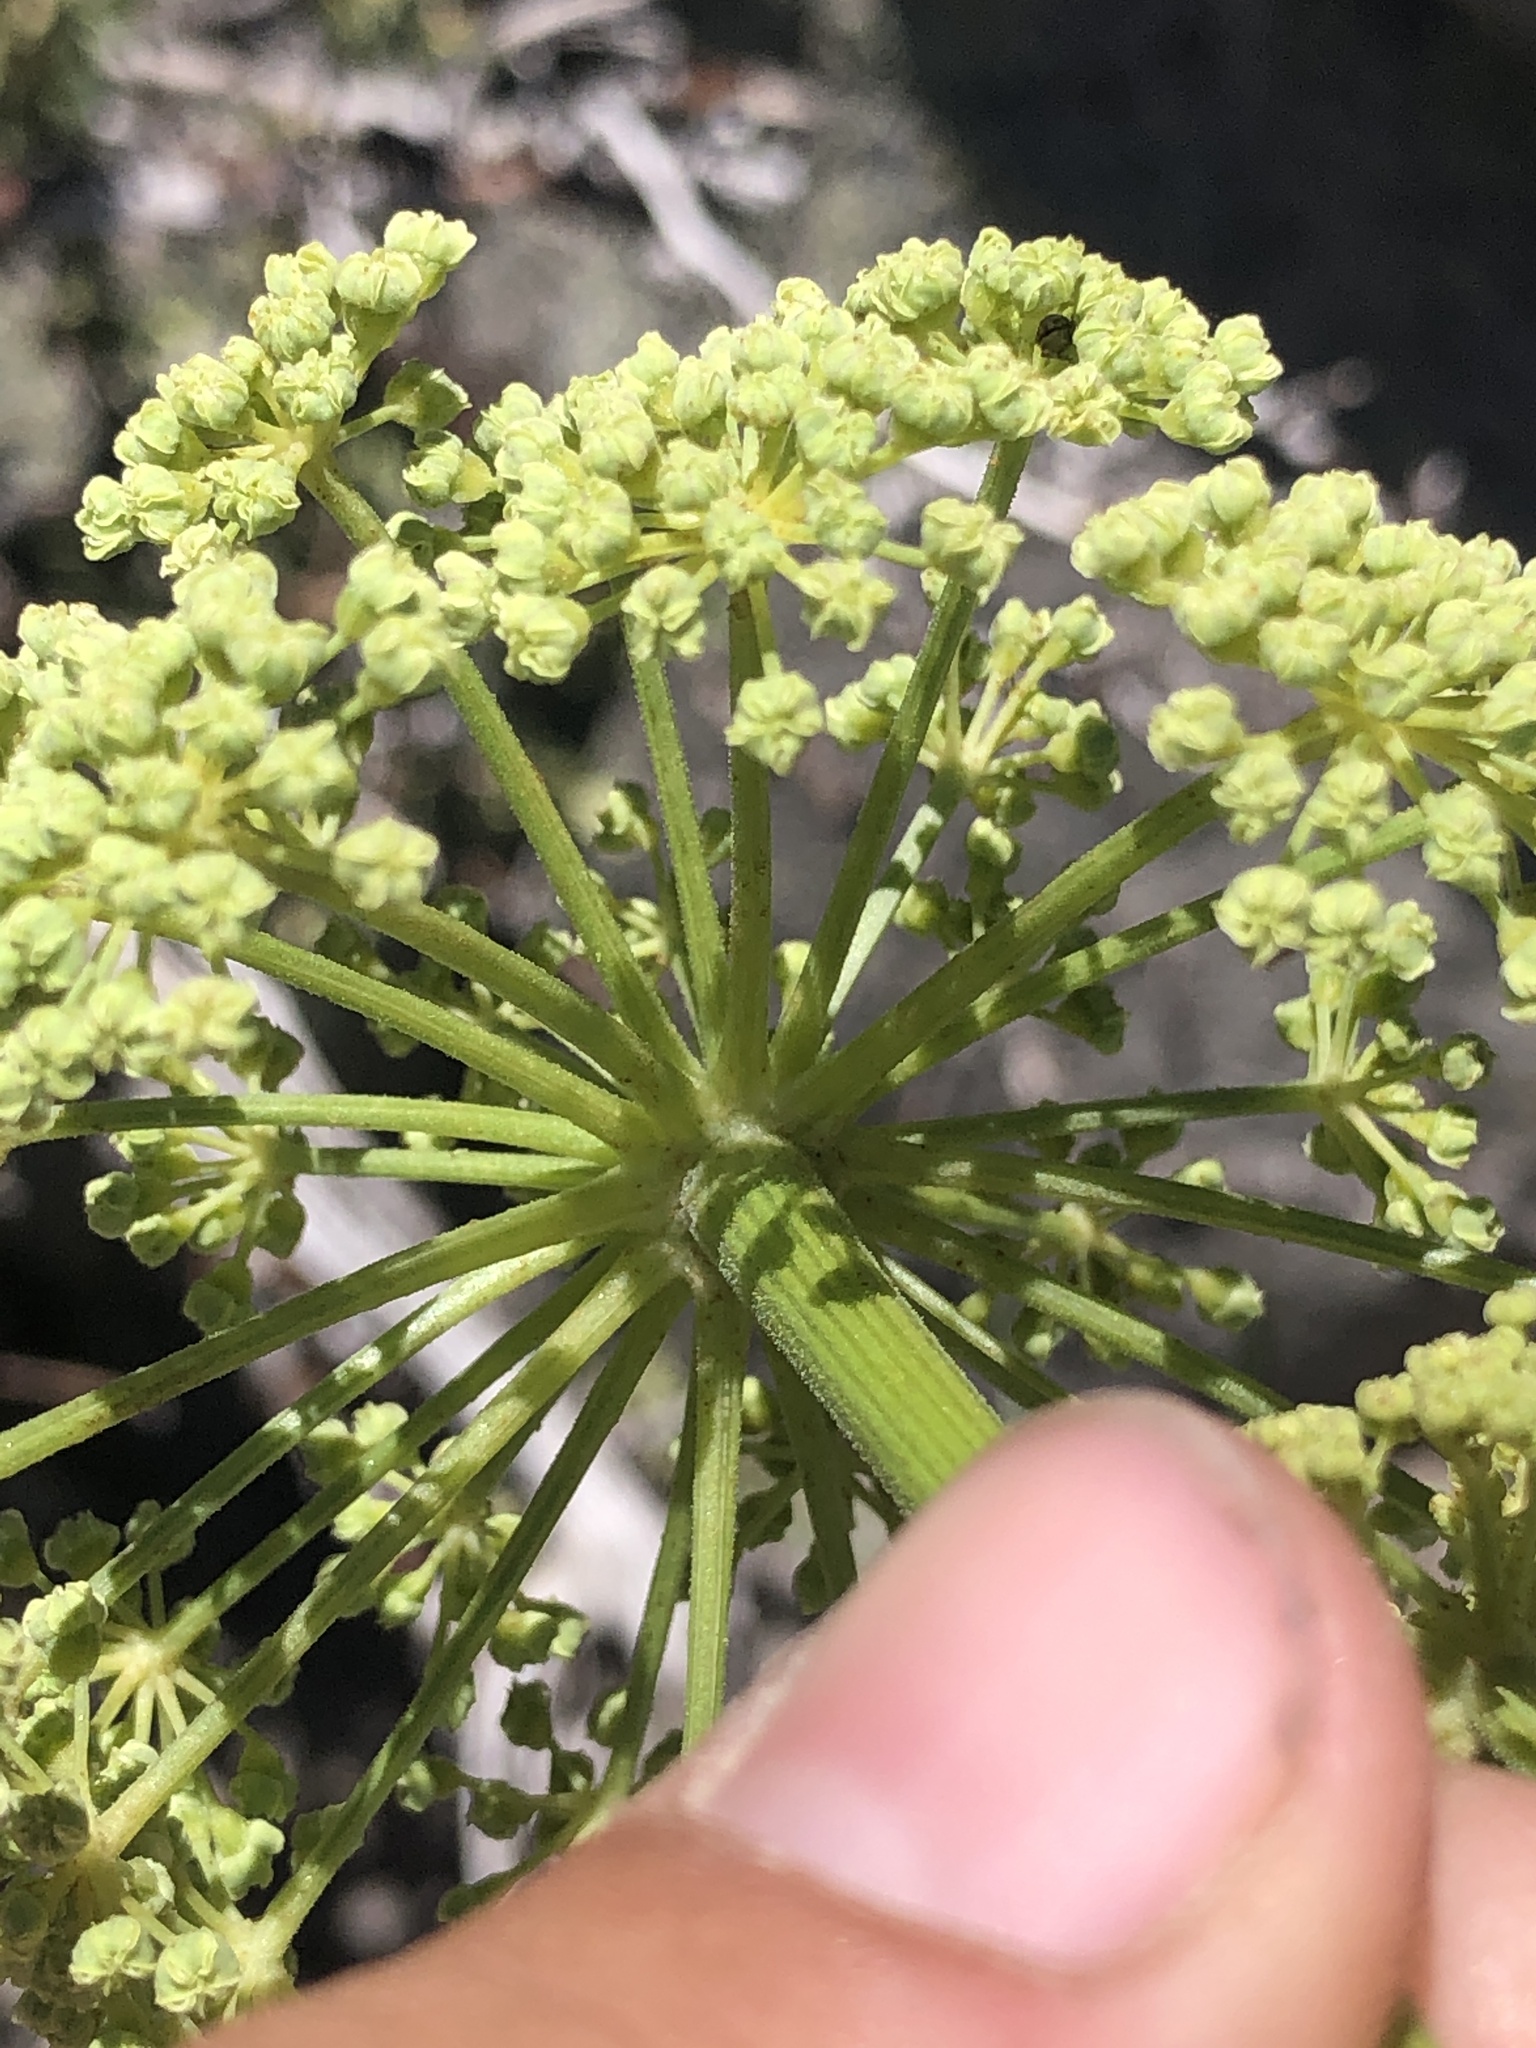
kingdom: Plantae
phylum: Tracheophyta
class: Magnoliopsida
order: Apiales
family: Apiaceae
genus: Angelica
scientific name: Angelica lineariloba
